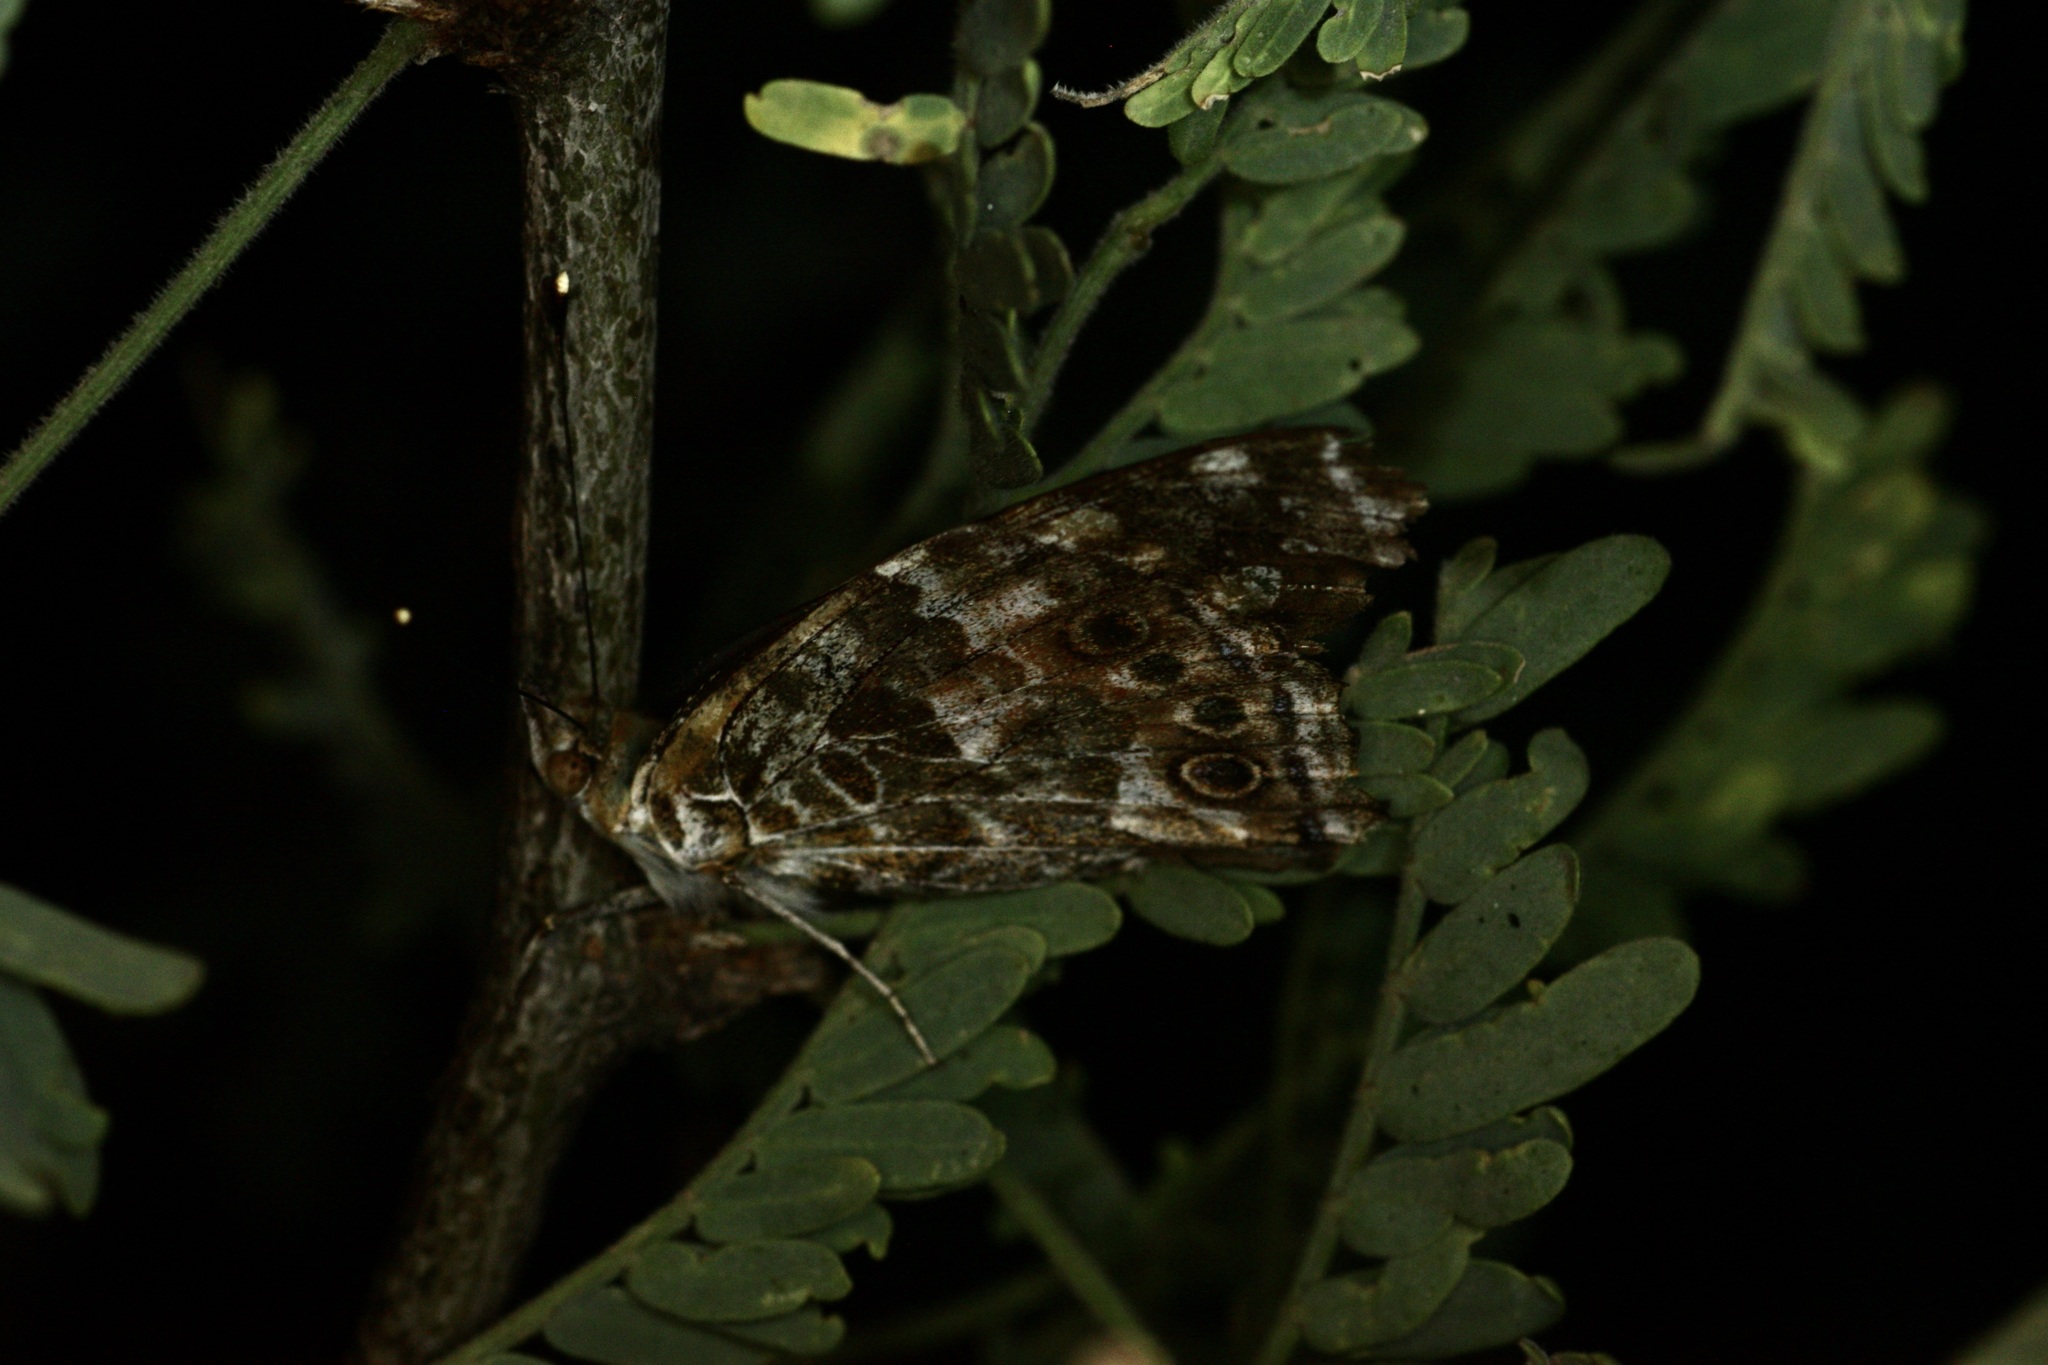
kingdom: Animalia
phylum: Arthropoda
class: Insecta
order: Lepidoptera
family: Nymphalidae
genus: Vanessa
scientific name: Vanessa cardui
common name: Painted lady
